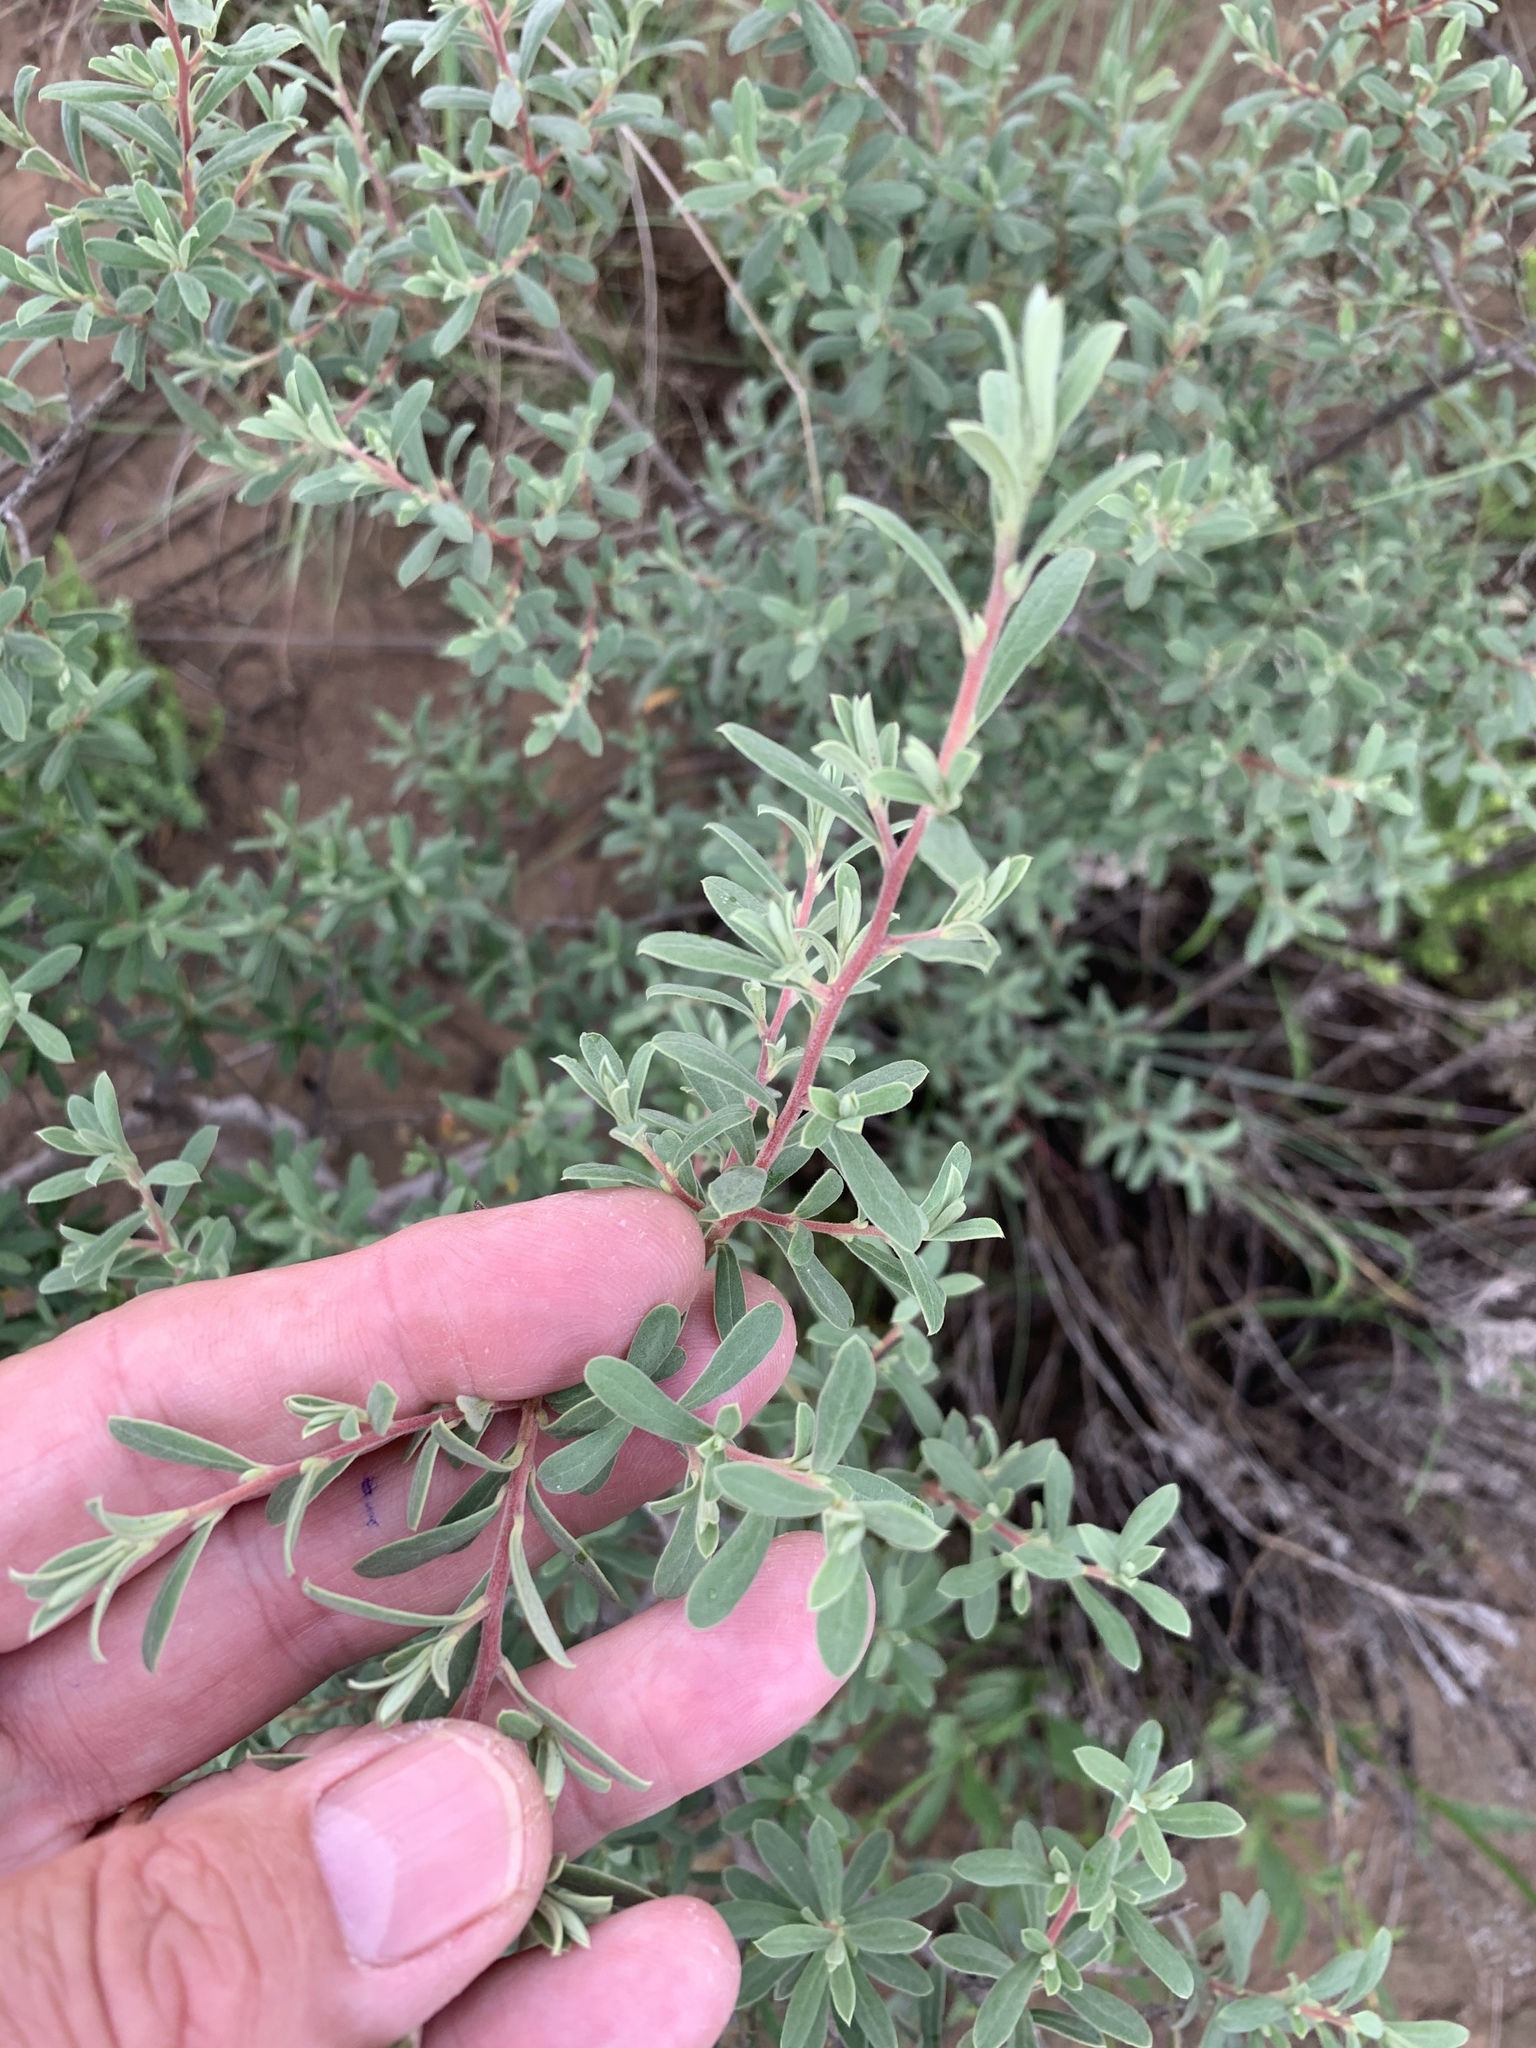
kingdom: Plantae
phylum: Tracheophyta
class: Magnoliopsida
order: Ericales
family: Ebenaceae
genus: Diospyros
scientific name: Diospyros pubescens
